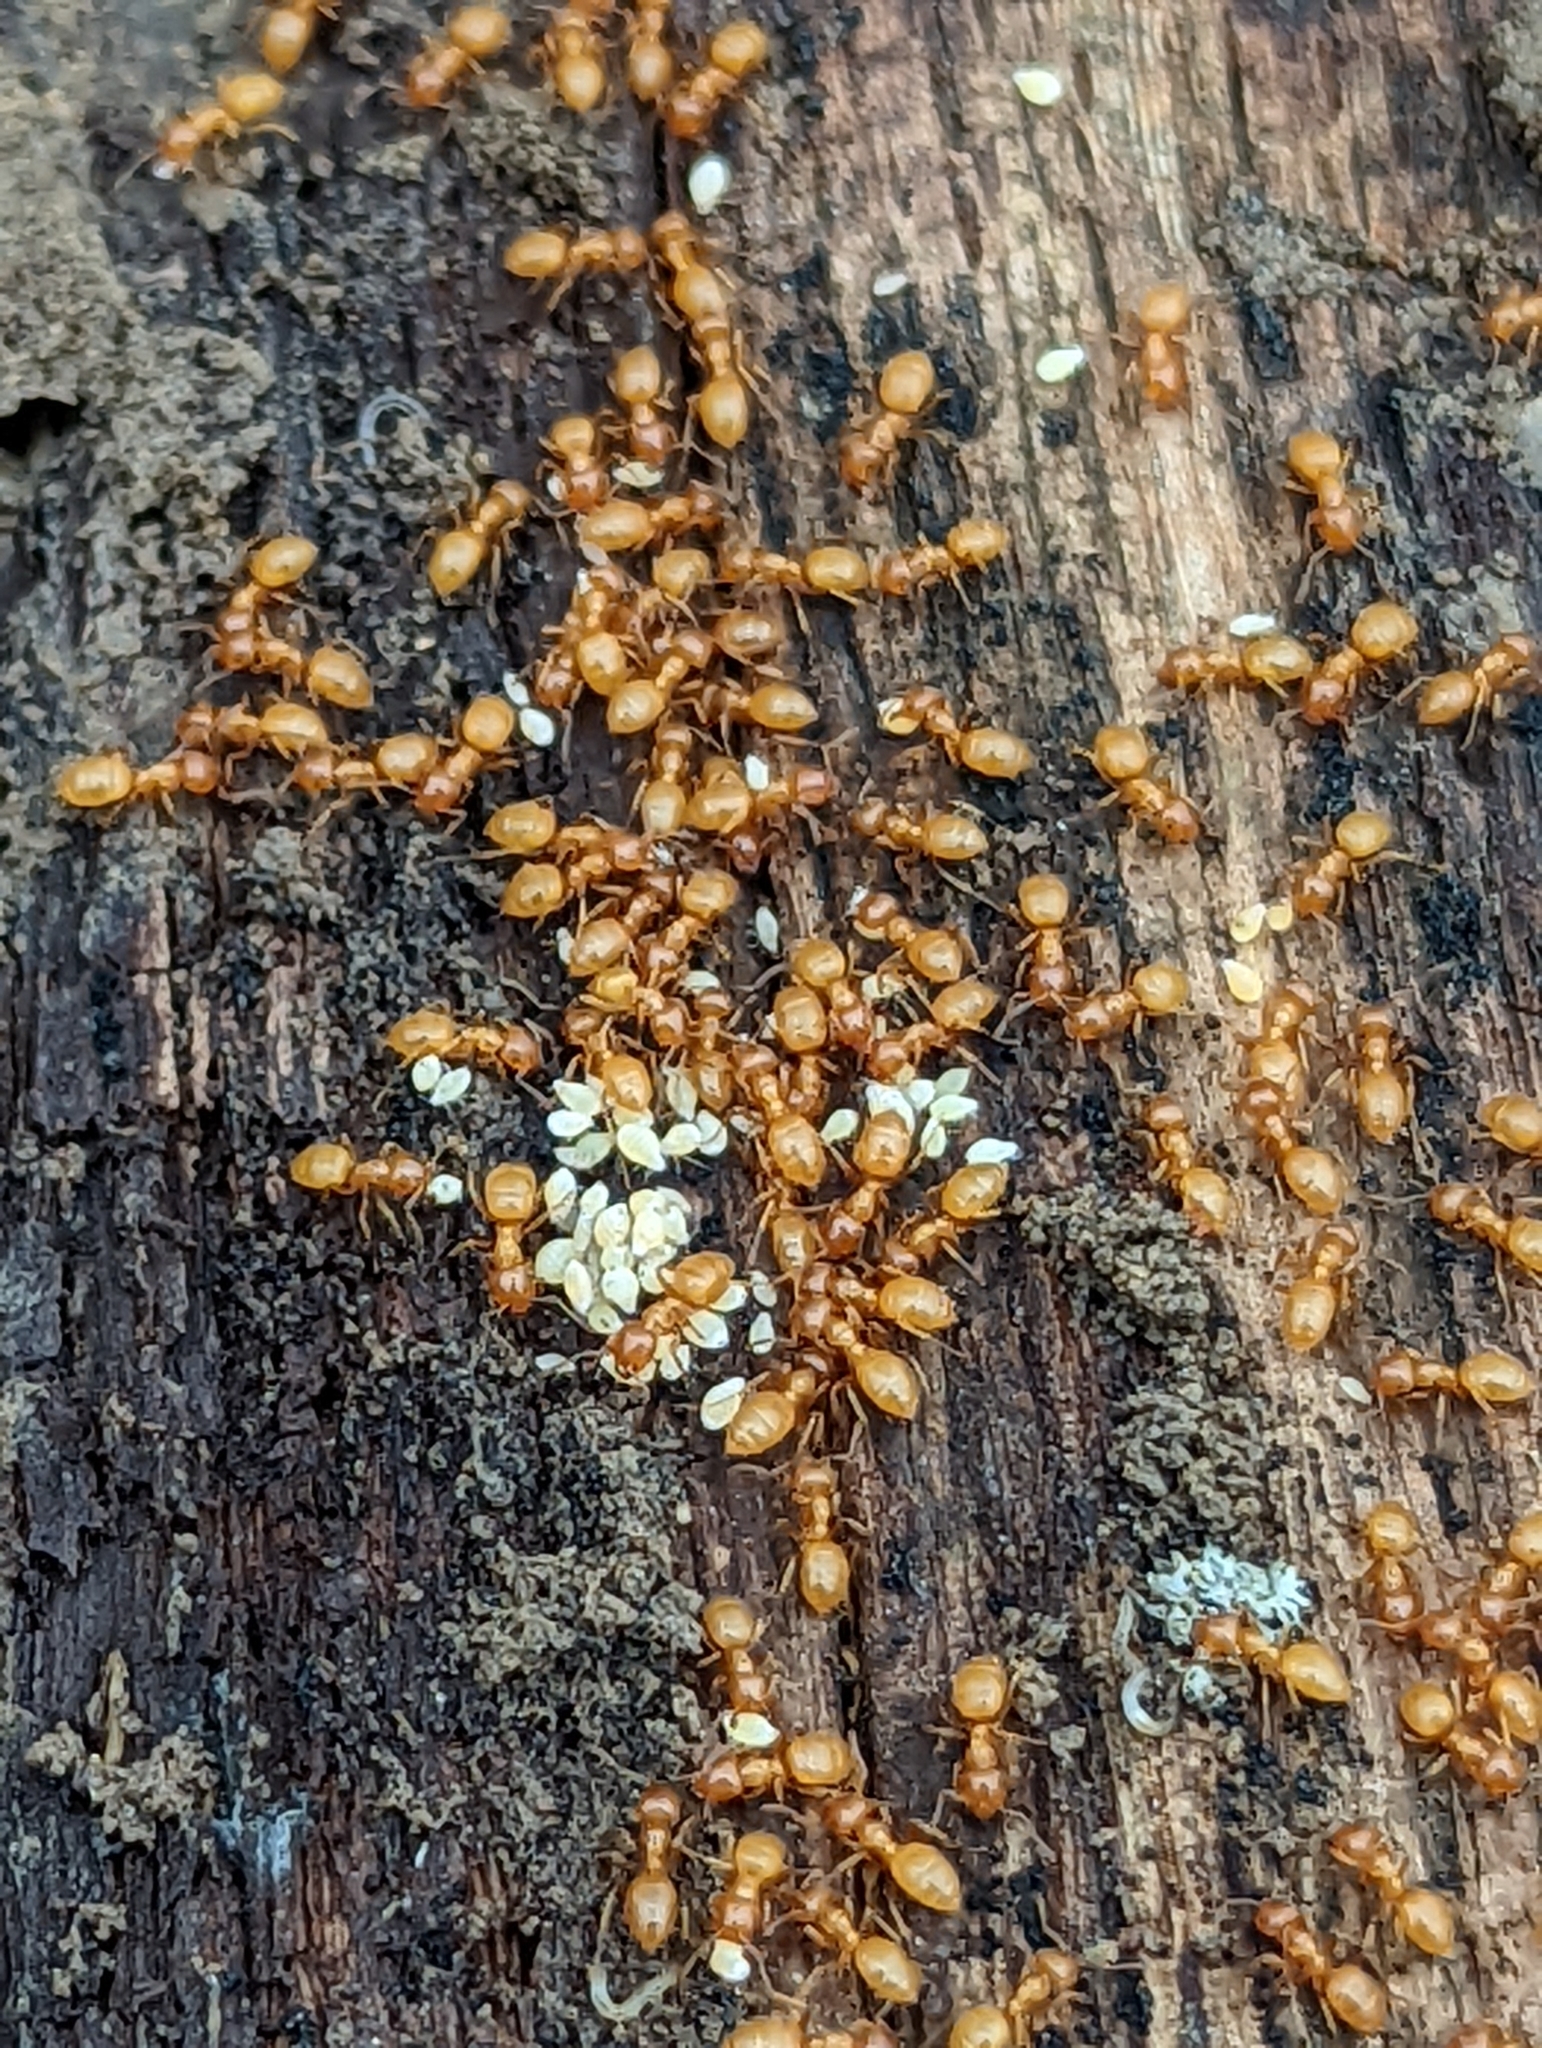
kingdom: Animalia
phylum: Arthropoda
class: Insecta
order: Hymenoptera
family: Formicidae
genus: Acanthomyops
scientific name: Acanthomyops
